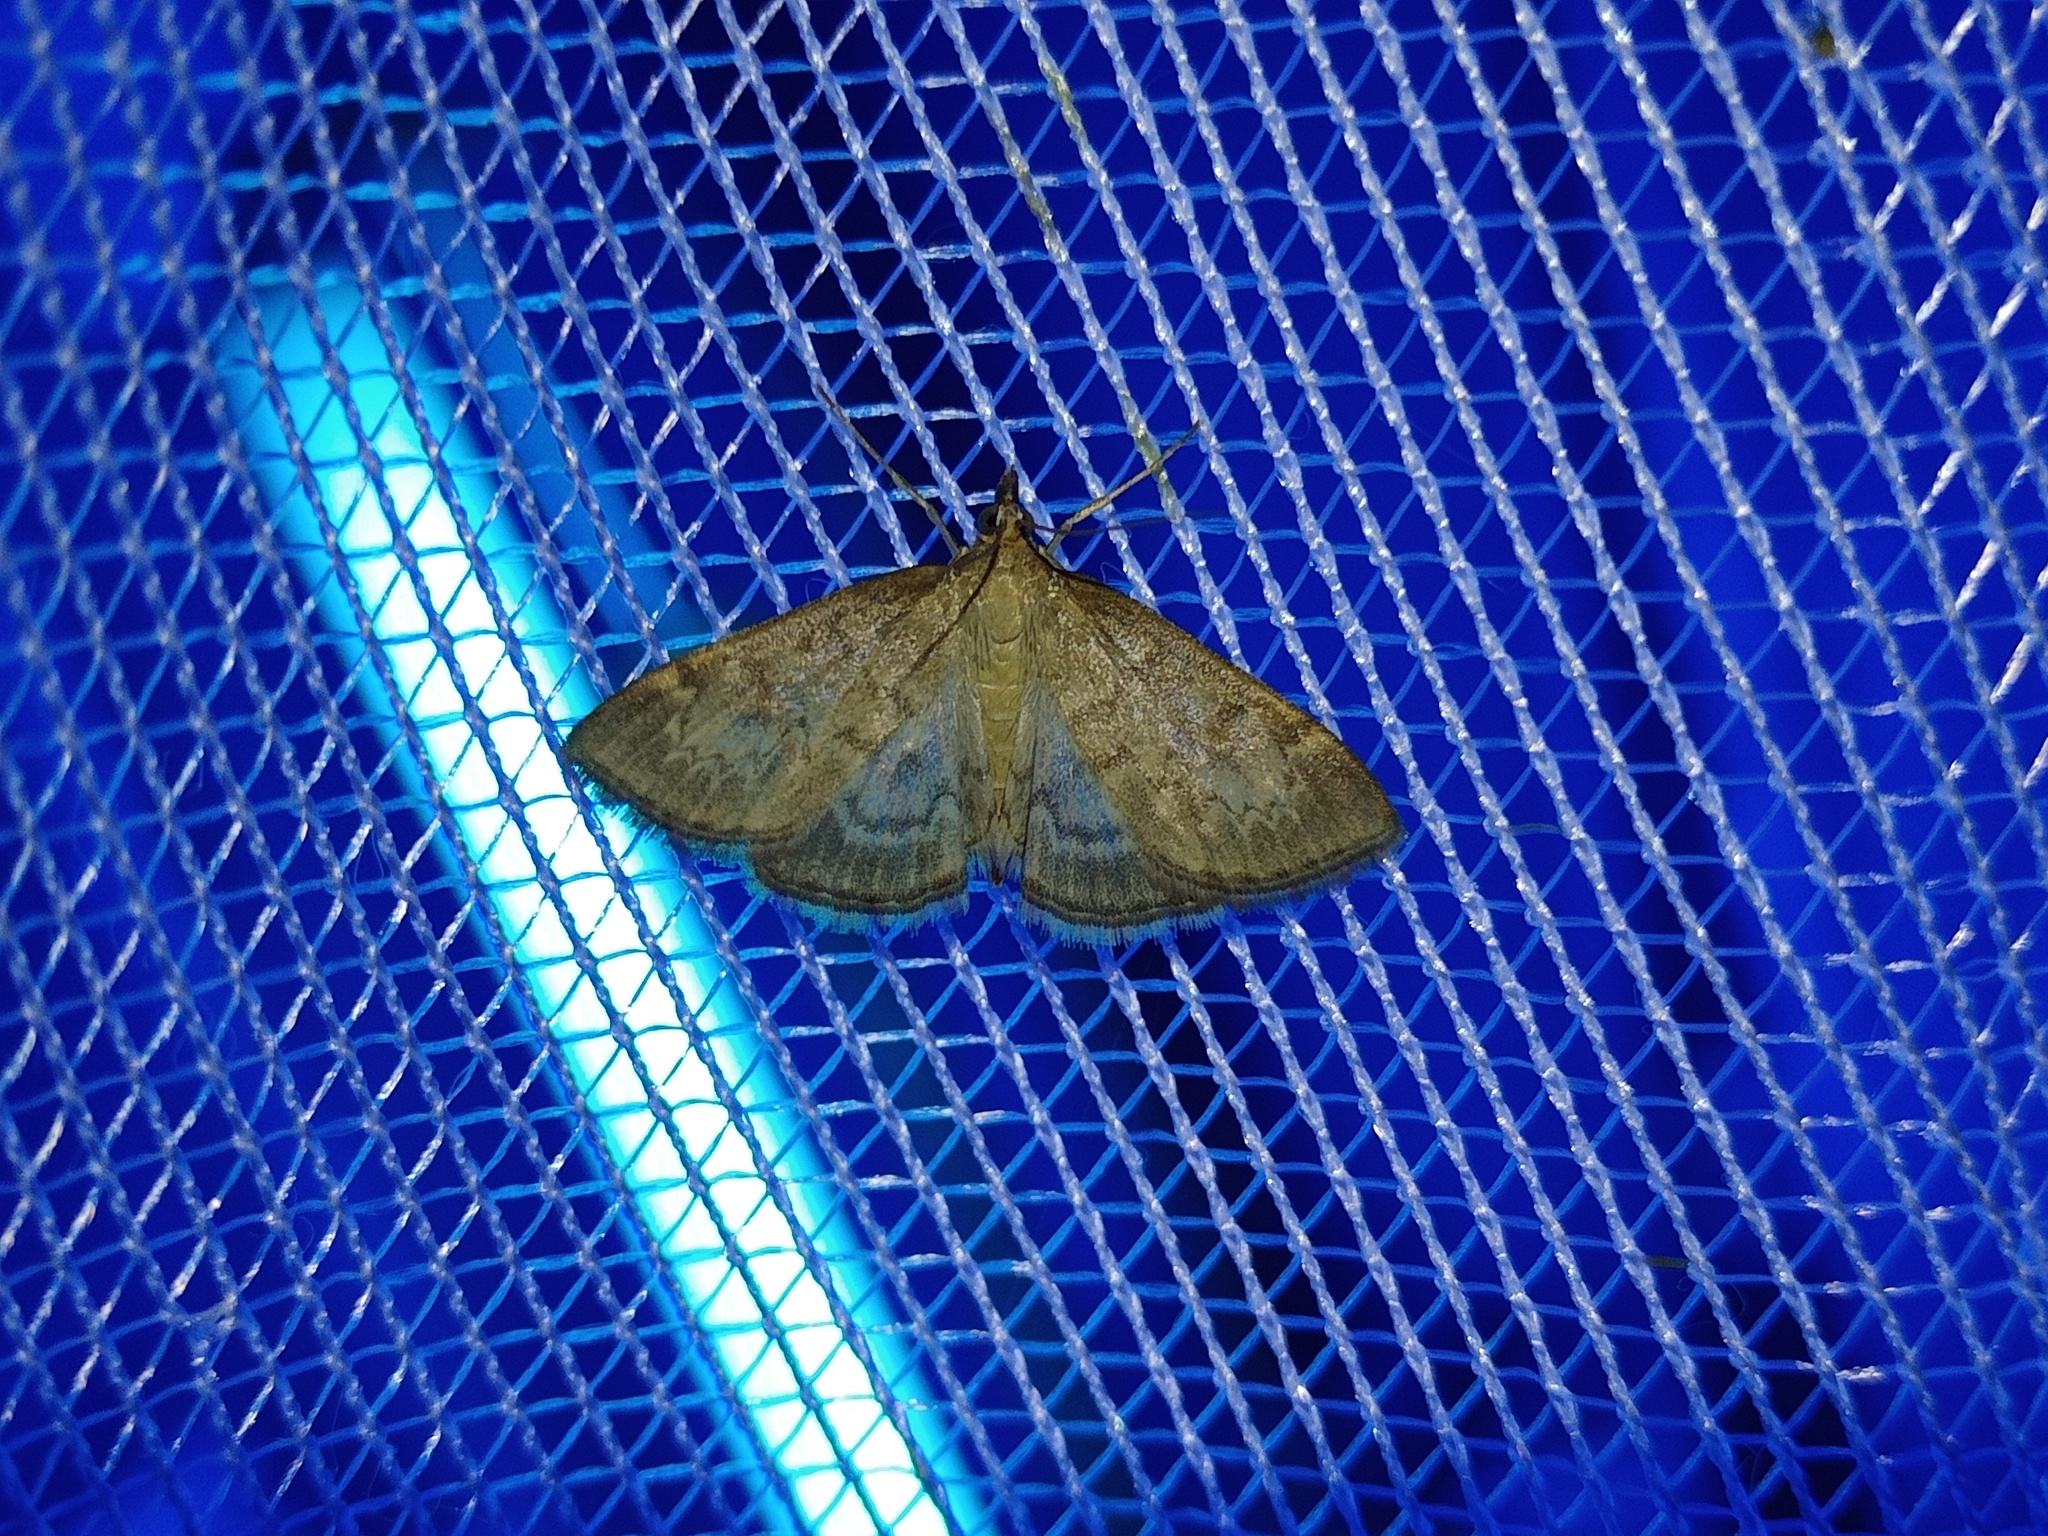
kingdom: Animalia
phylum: Arthropoda
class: Insecta
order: Lepidoptera
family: Crambidae
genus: Anania
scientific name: Anania fuscalis
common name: Cinerous pearl
